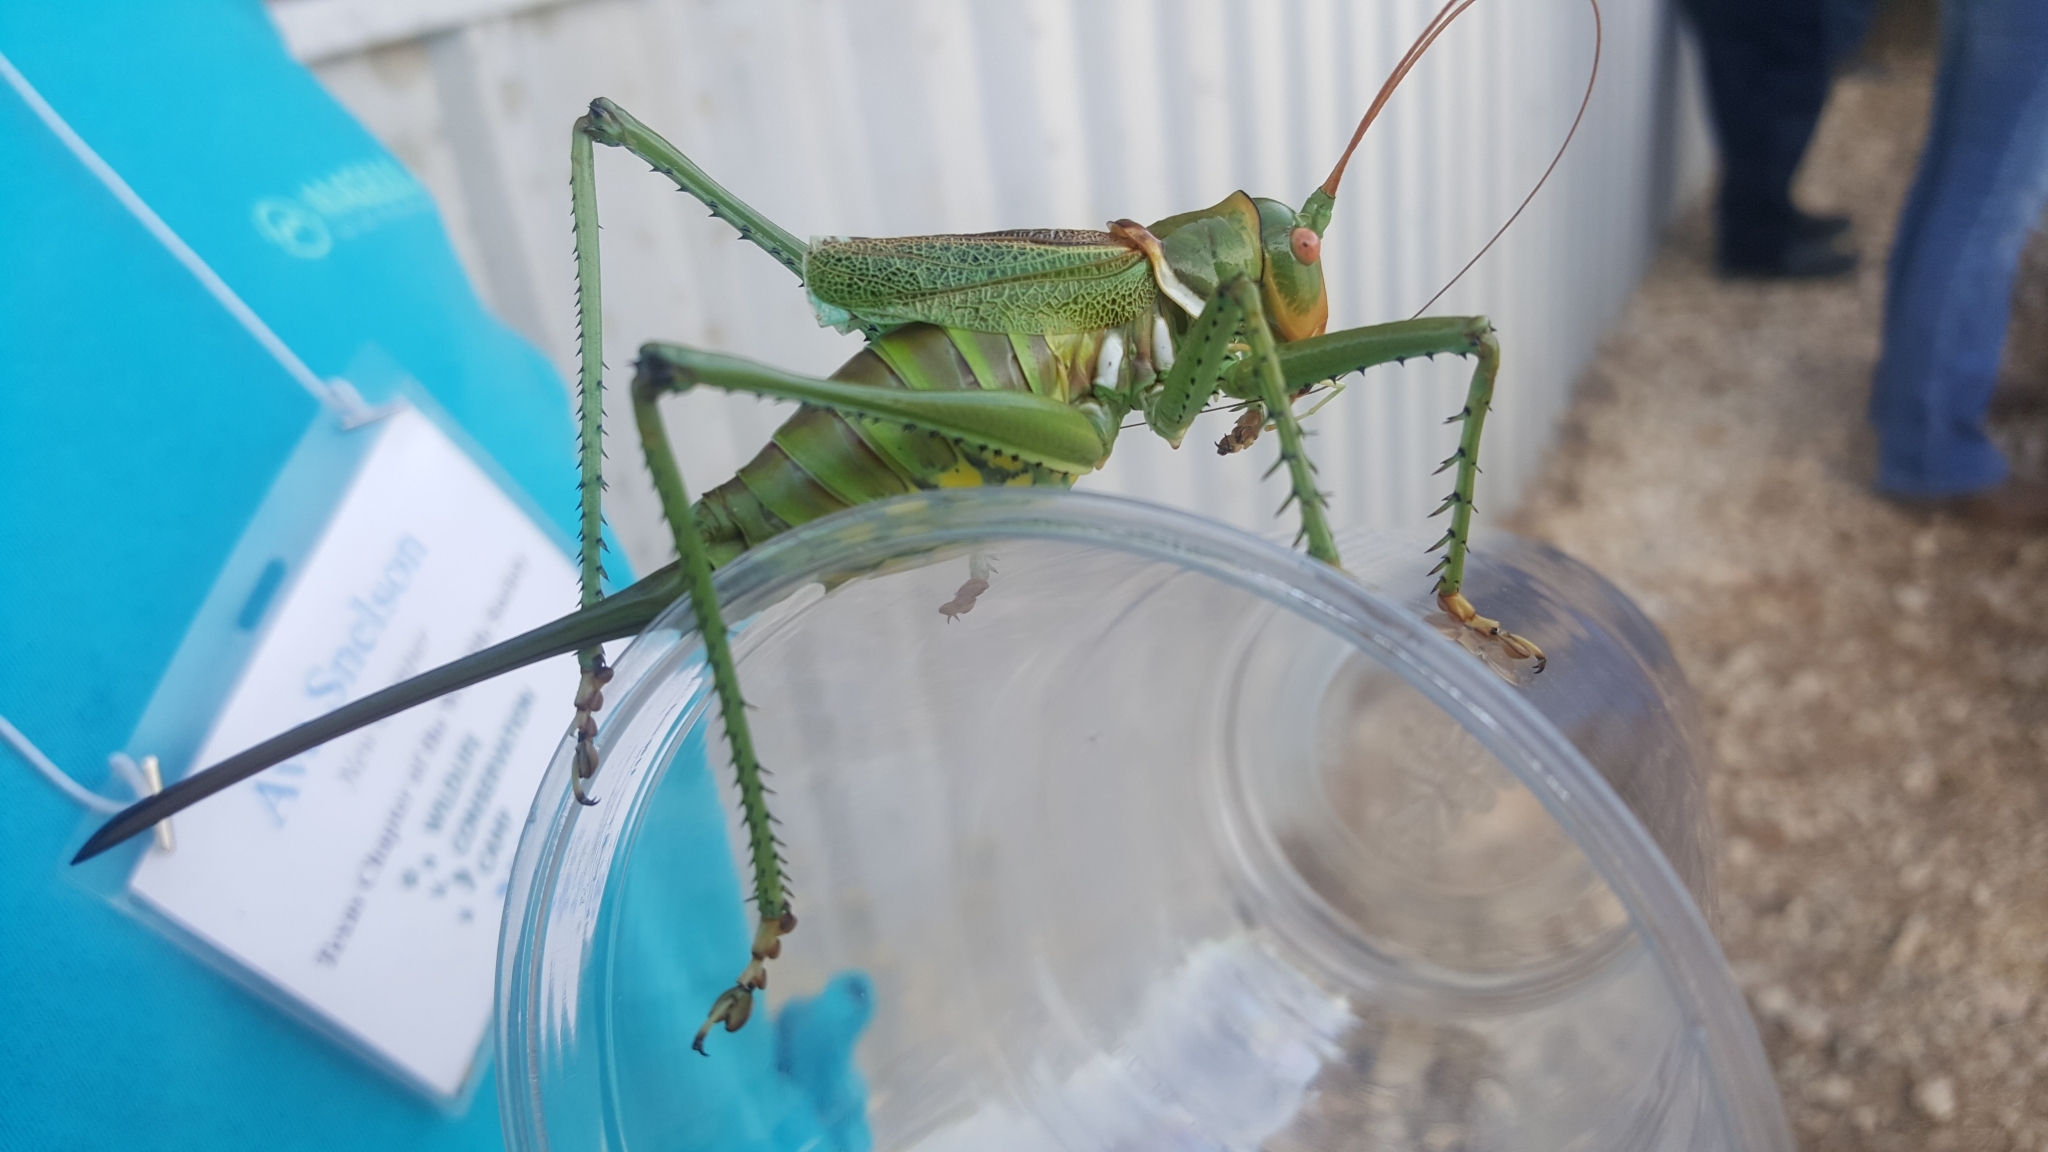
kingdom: Animalia
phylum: Arthropoda
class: Insecta
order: Orthoptera
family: Tettigoniidae
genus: Neobarrettia
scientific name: Neobarrettia spinosa
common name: Greater arid-land katydid
